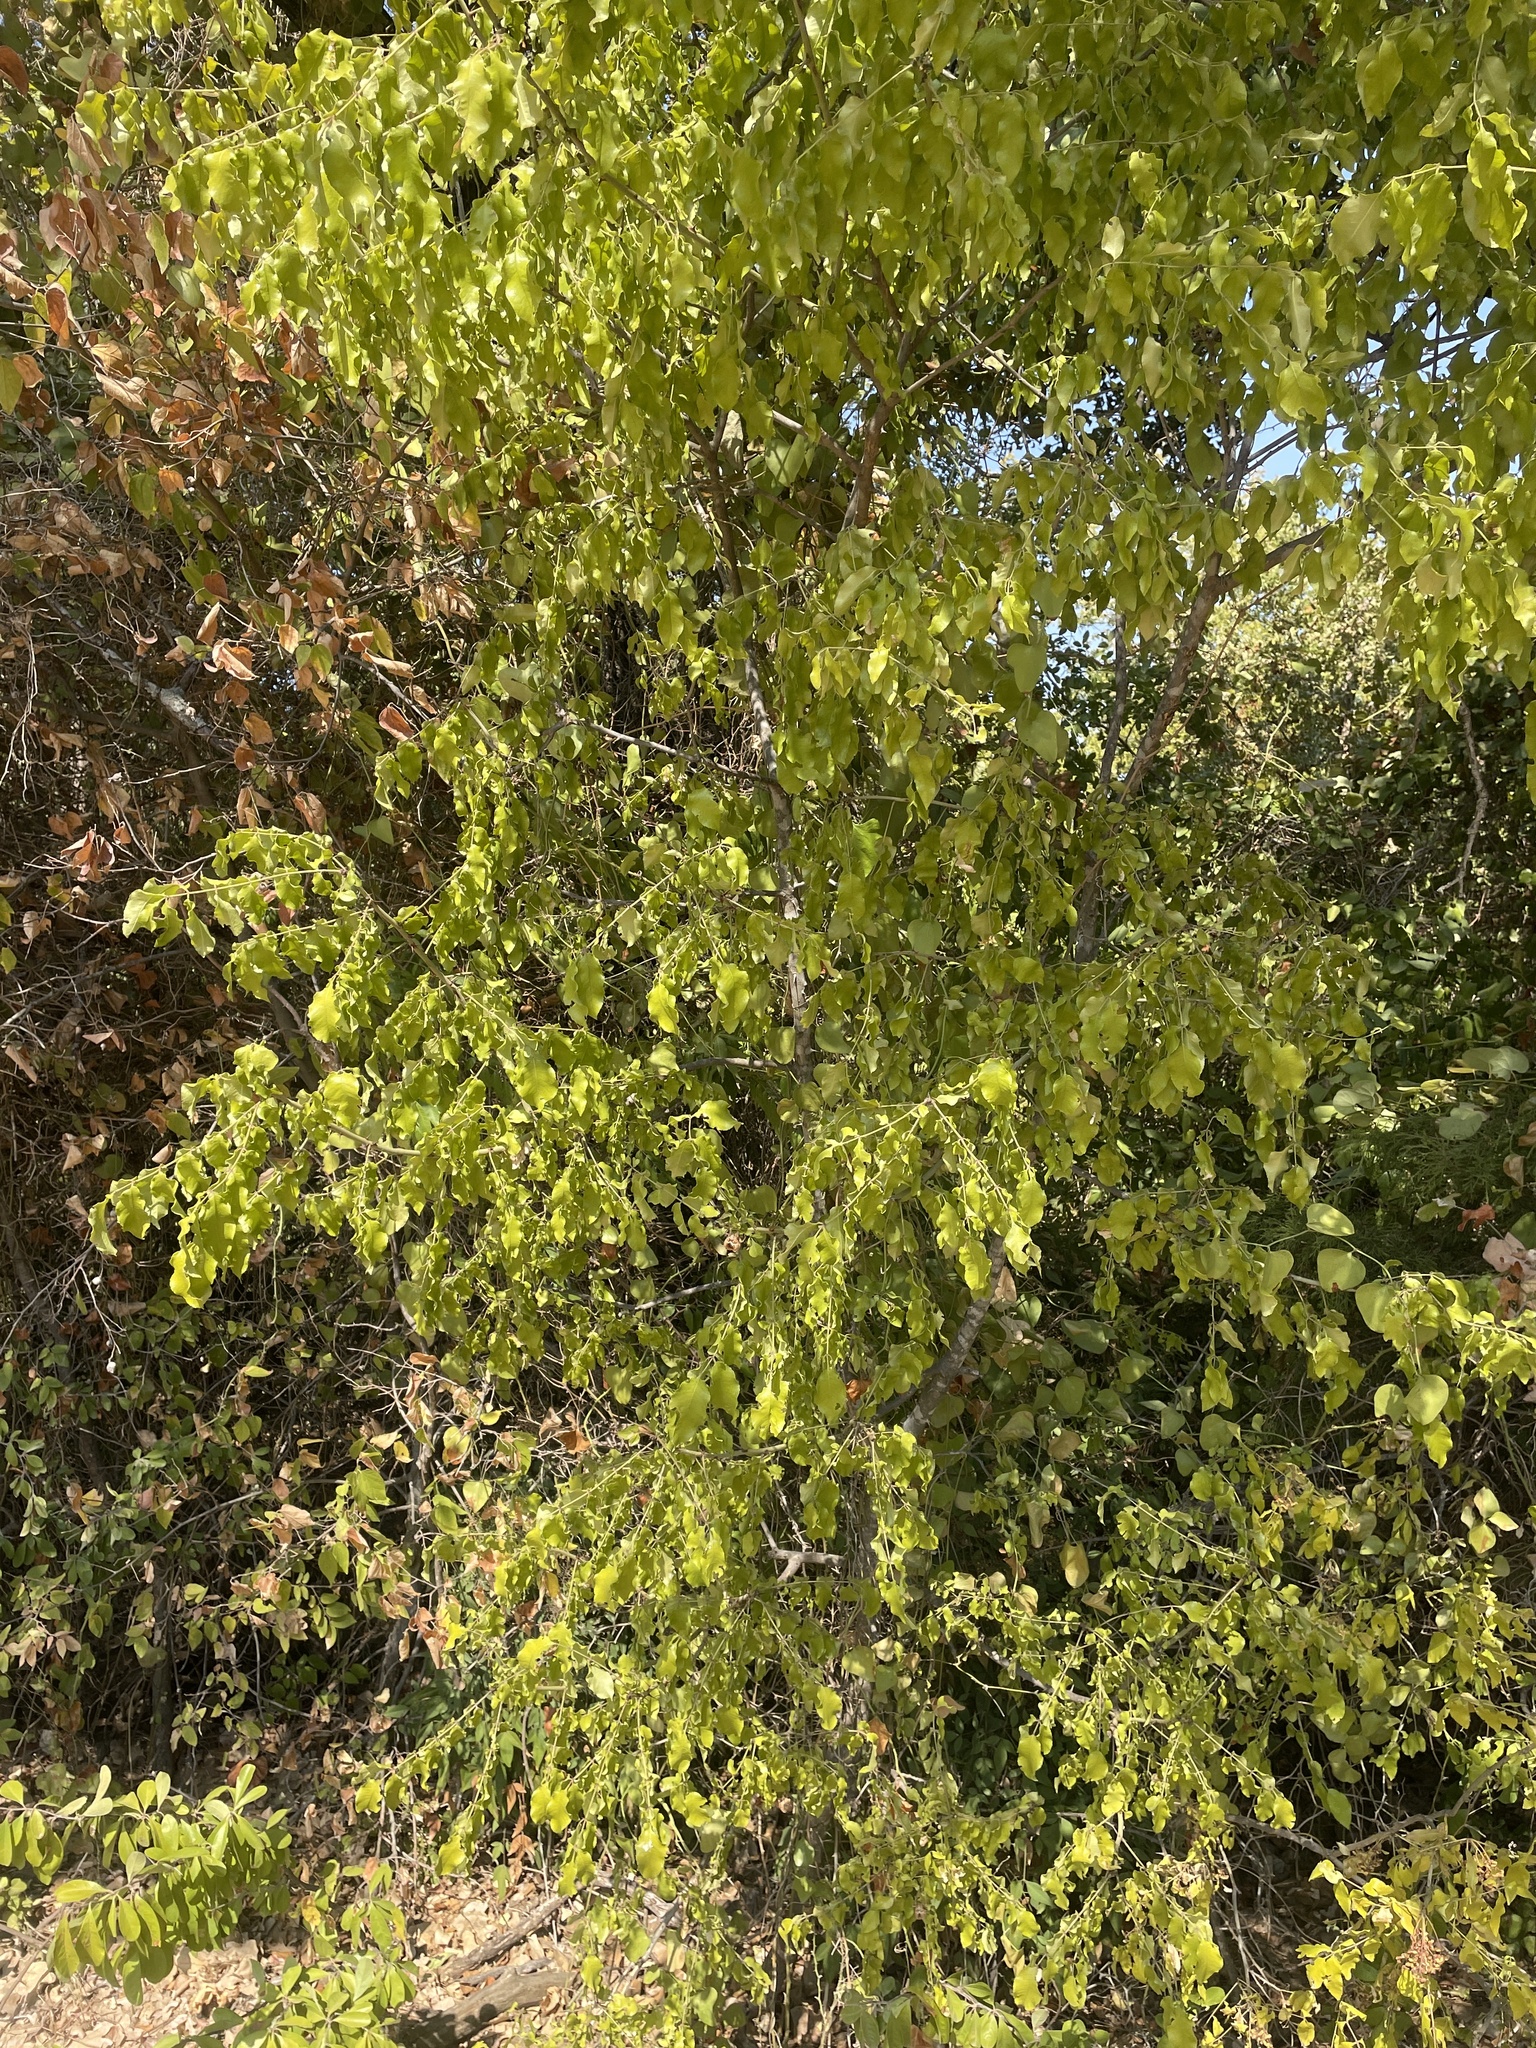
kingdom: Plantae
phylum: Tracheophyta
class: Magnoliopsida
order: Sapindales
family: Rutaceae
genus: Zanthoxylum
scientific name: Zanthoxylum clava-herculis
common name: Hercules'-club
